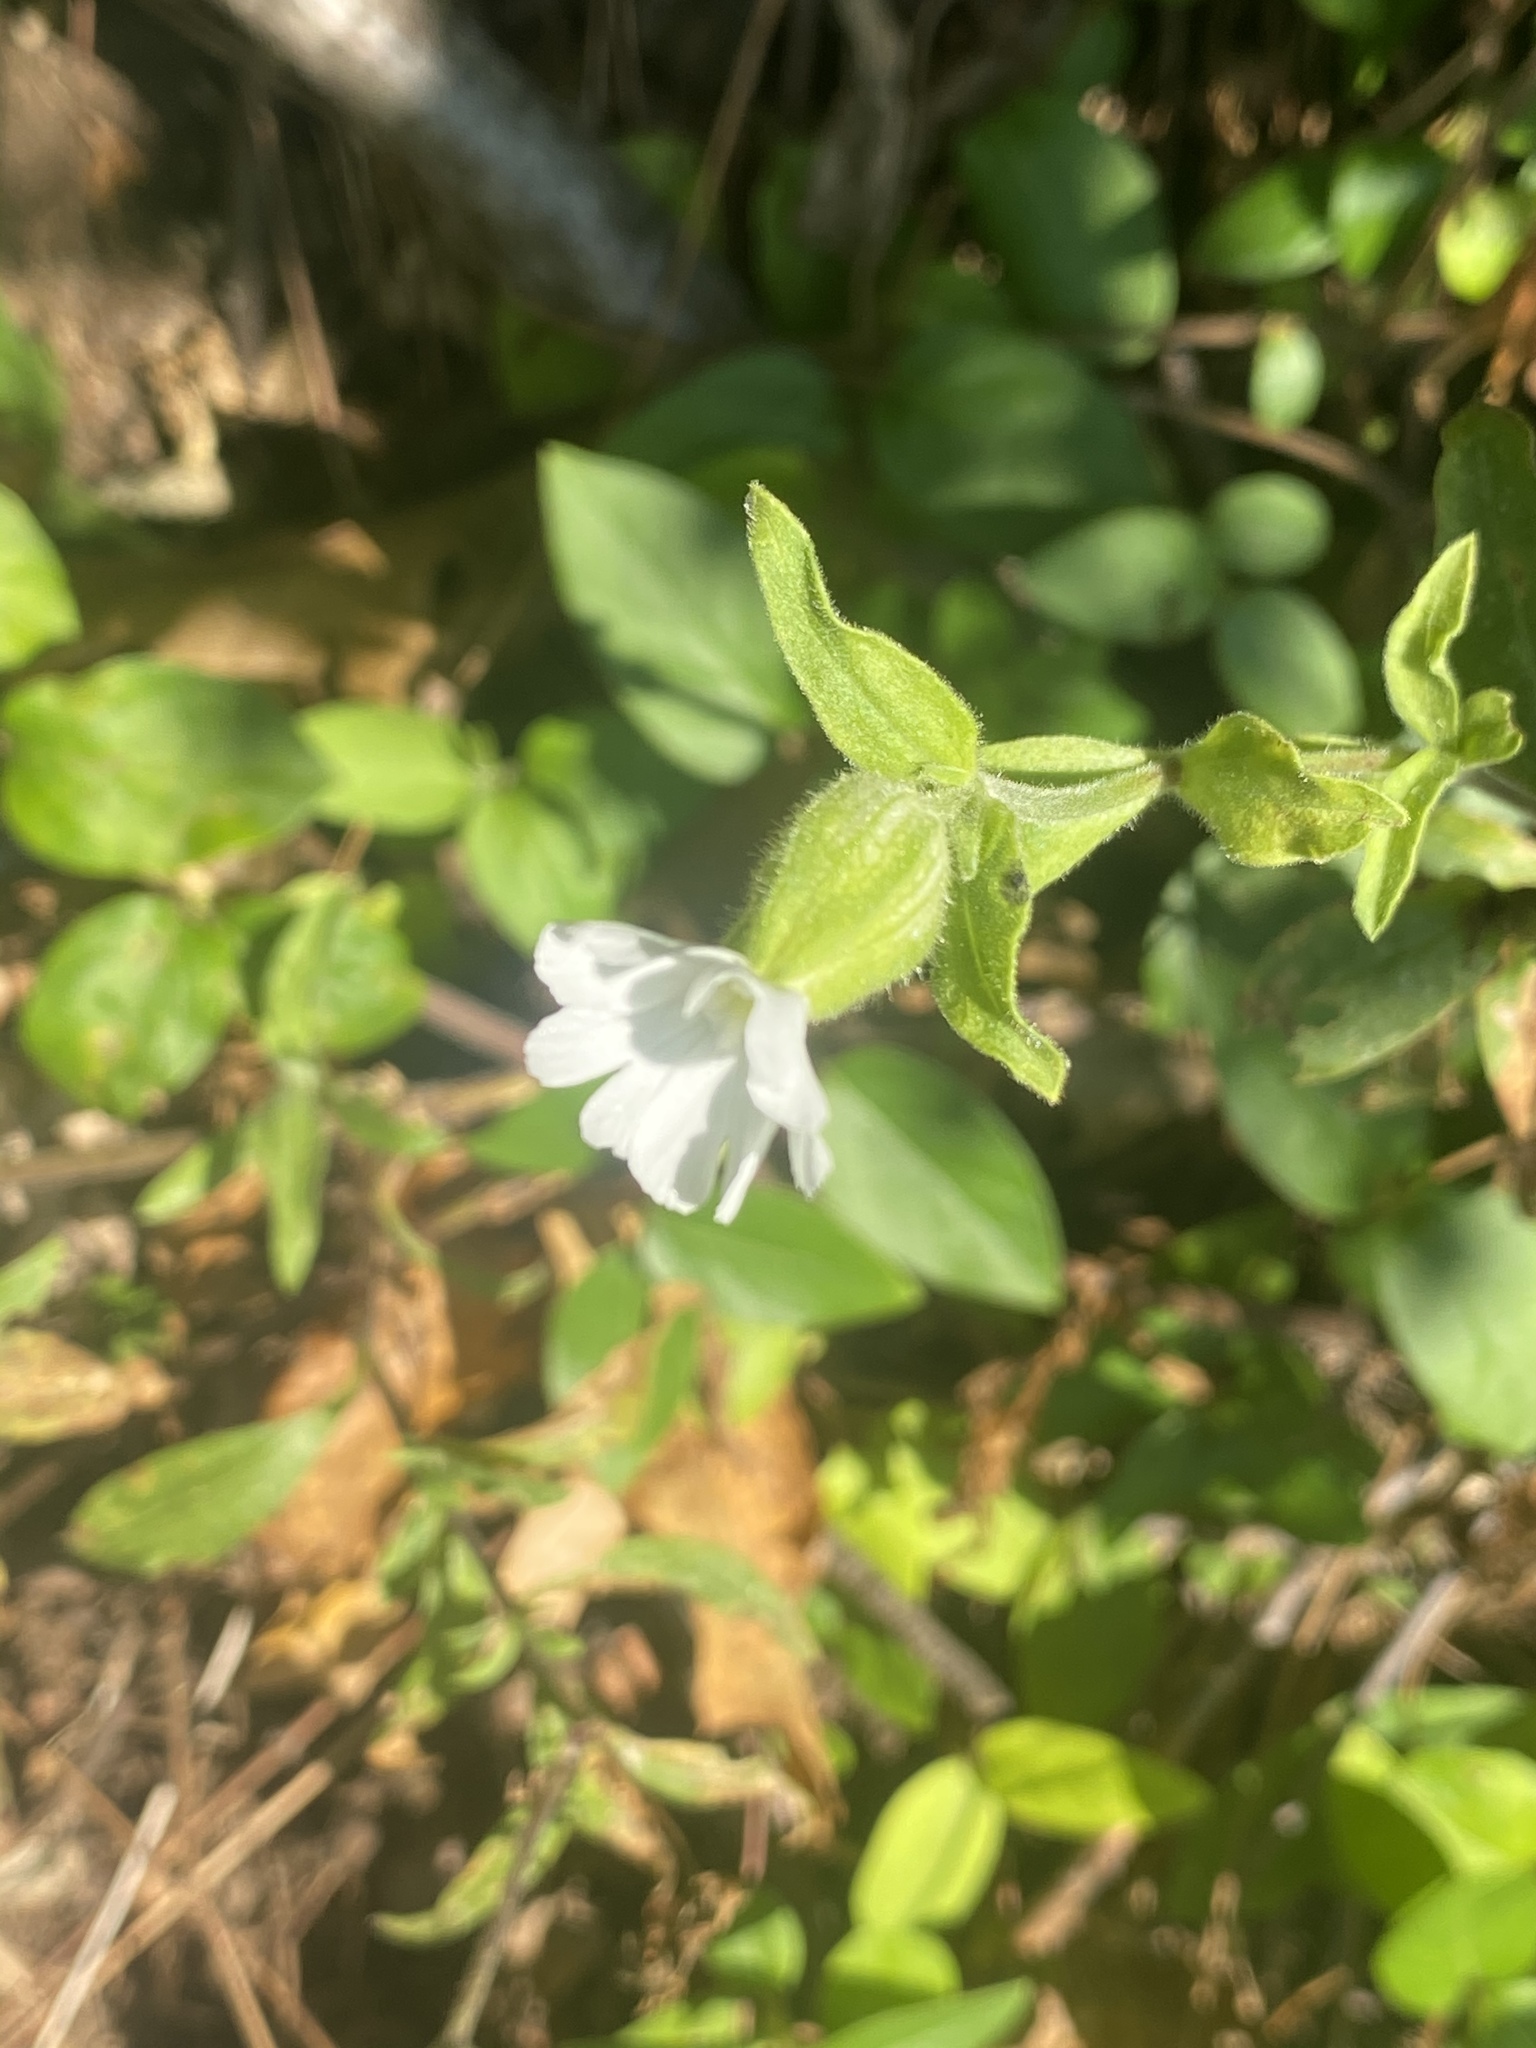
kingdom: Plantae
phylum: Tracheophyta
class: Magnoliopsida
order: Caryophyllales
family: Caryophyllaceae
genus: Silene
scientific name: Silene latifolia
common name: White campion
